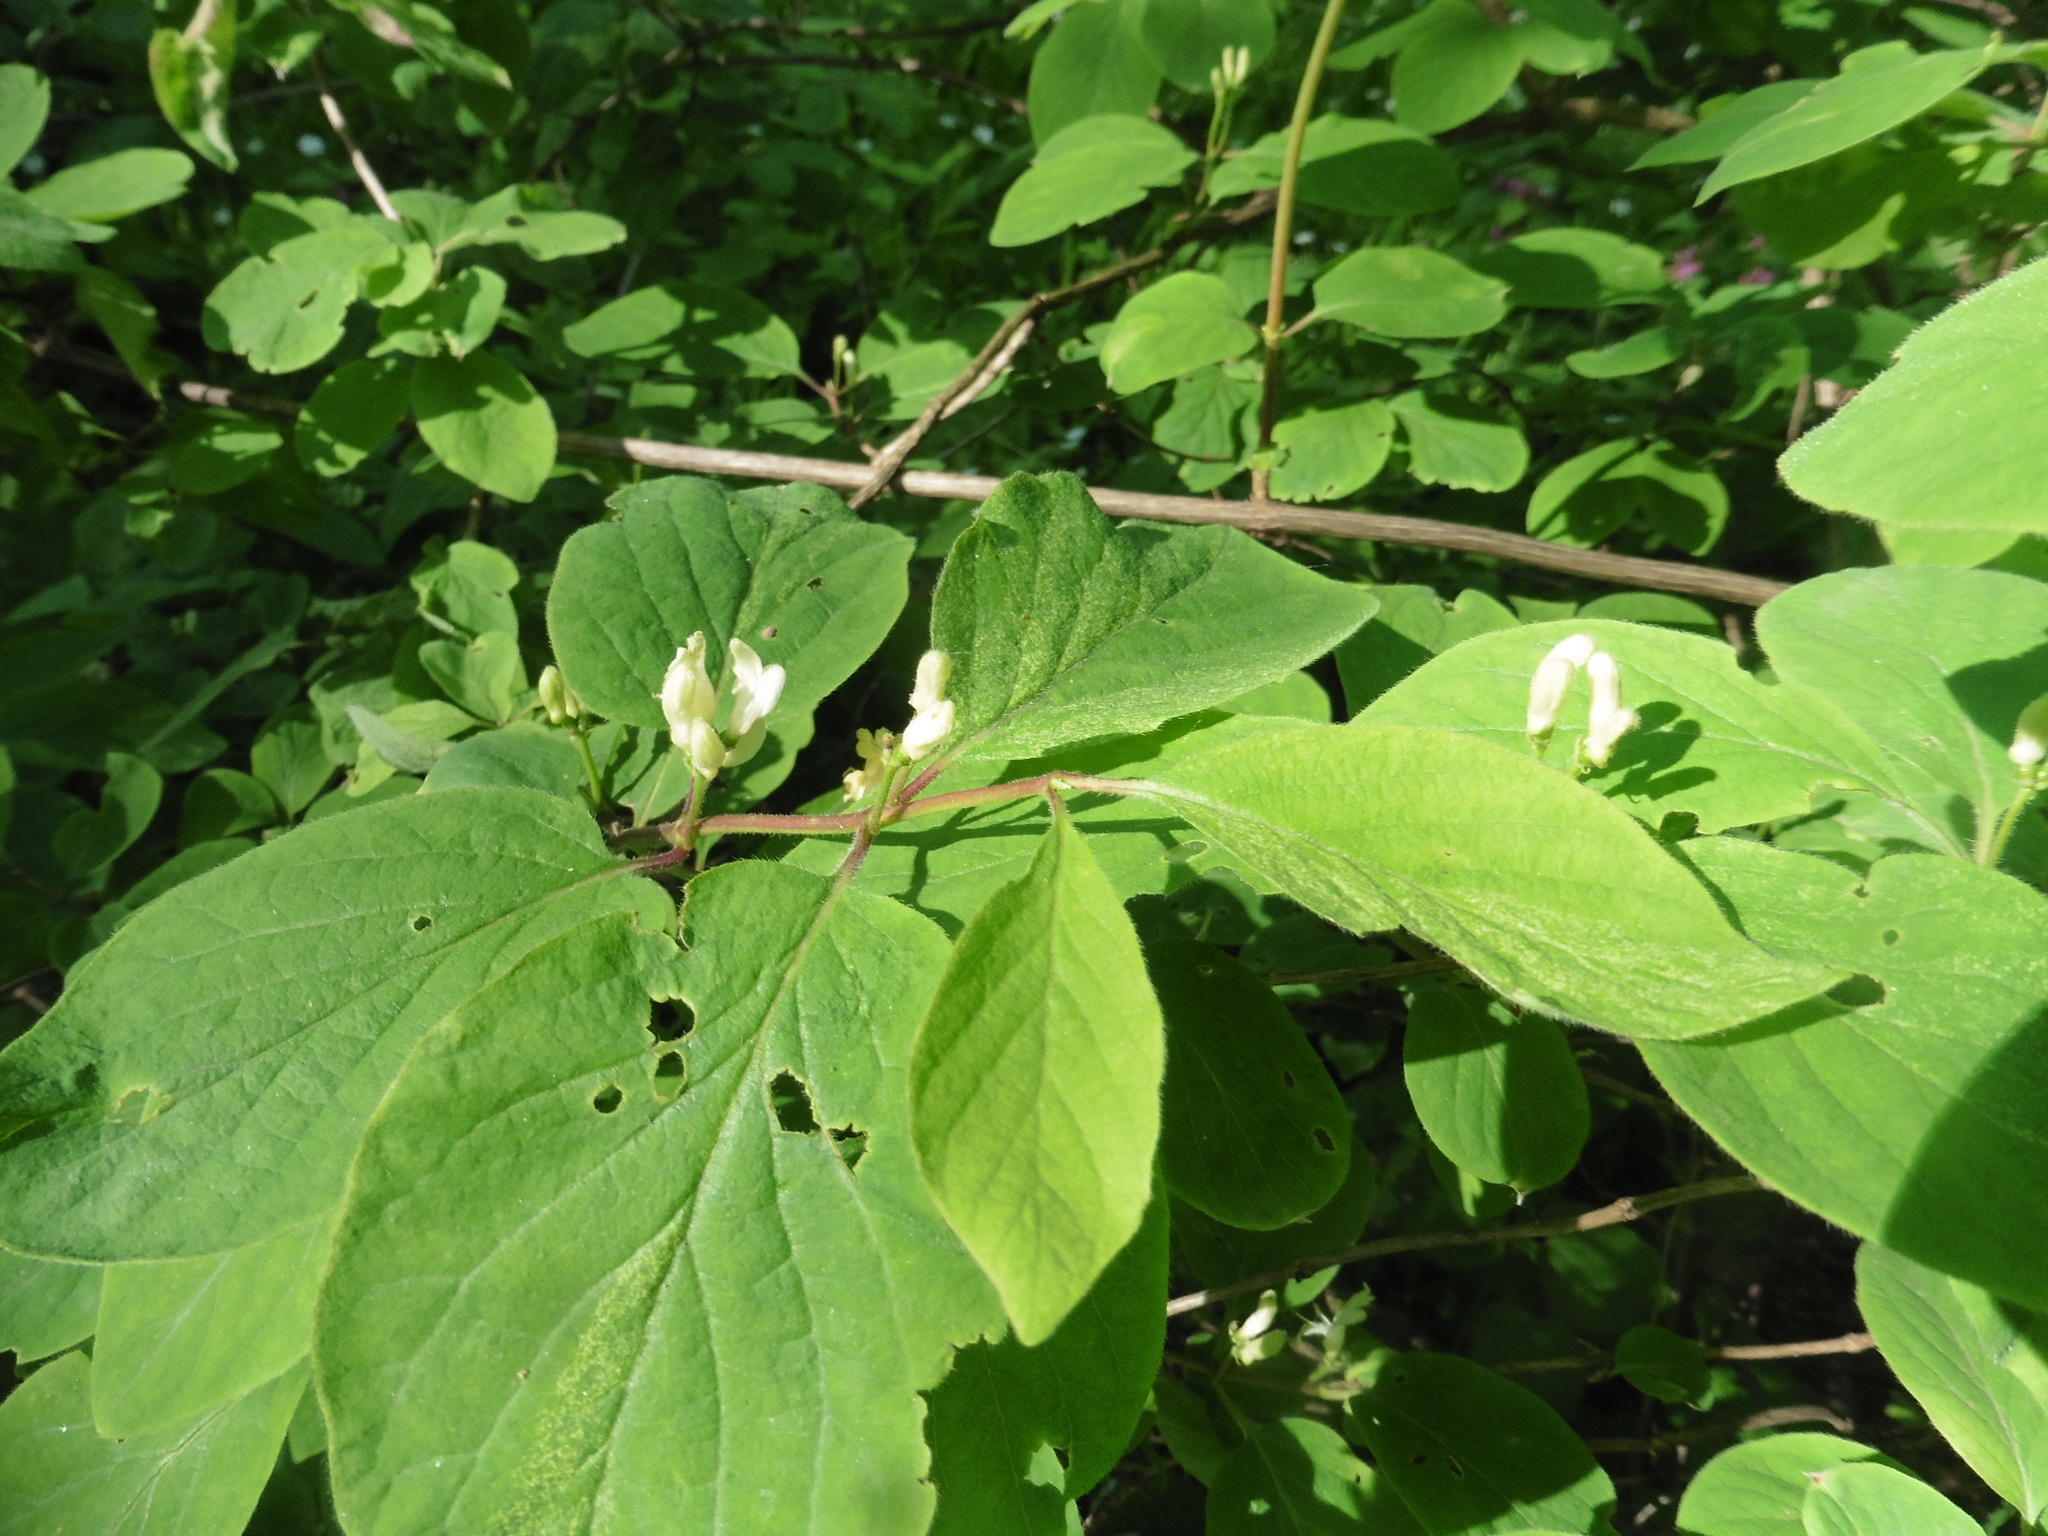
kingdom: Plantae
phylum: Tracheophyta
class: Magnoliopsida
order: Dipsacales
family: Caprifoliaceae
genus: Lonicera
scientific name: Lonicera xylosteum
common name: Fly honeysuckle
